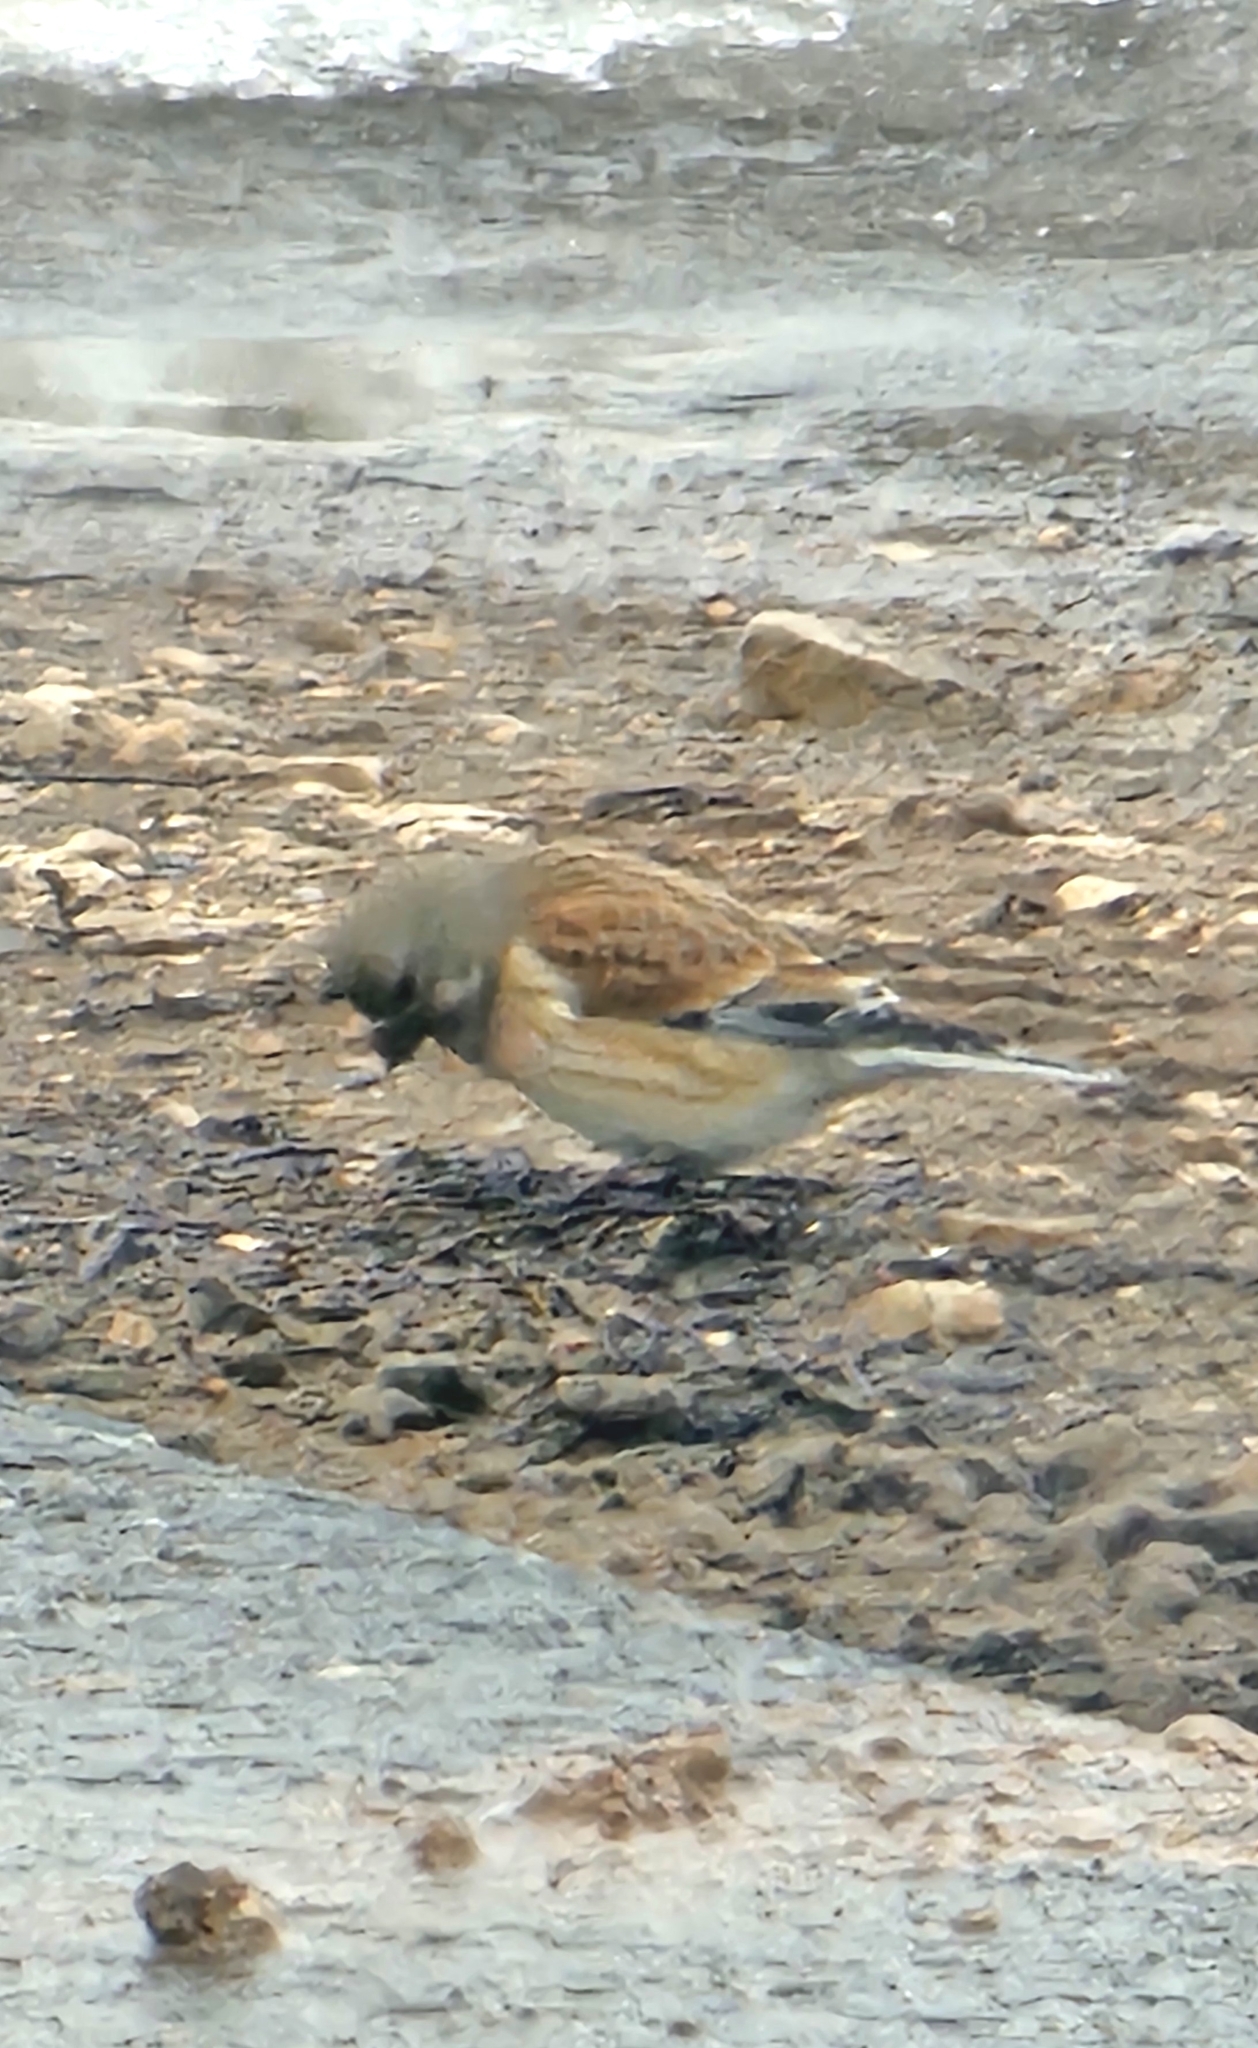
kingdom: Animalia
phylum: Chordata
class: Aves
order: Passeriformes
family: Fringillidae
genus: Linaria
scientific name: Linaria cannabina
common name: Common linnet
